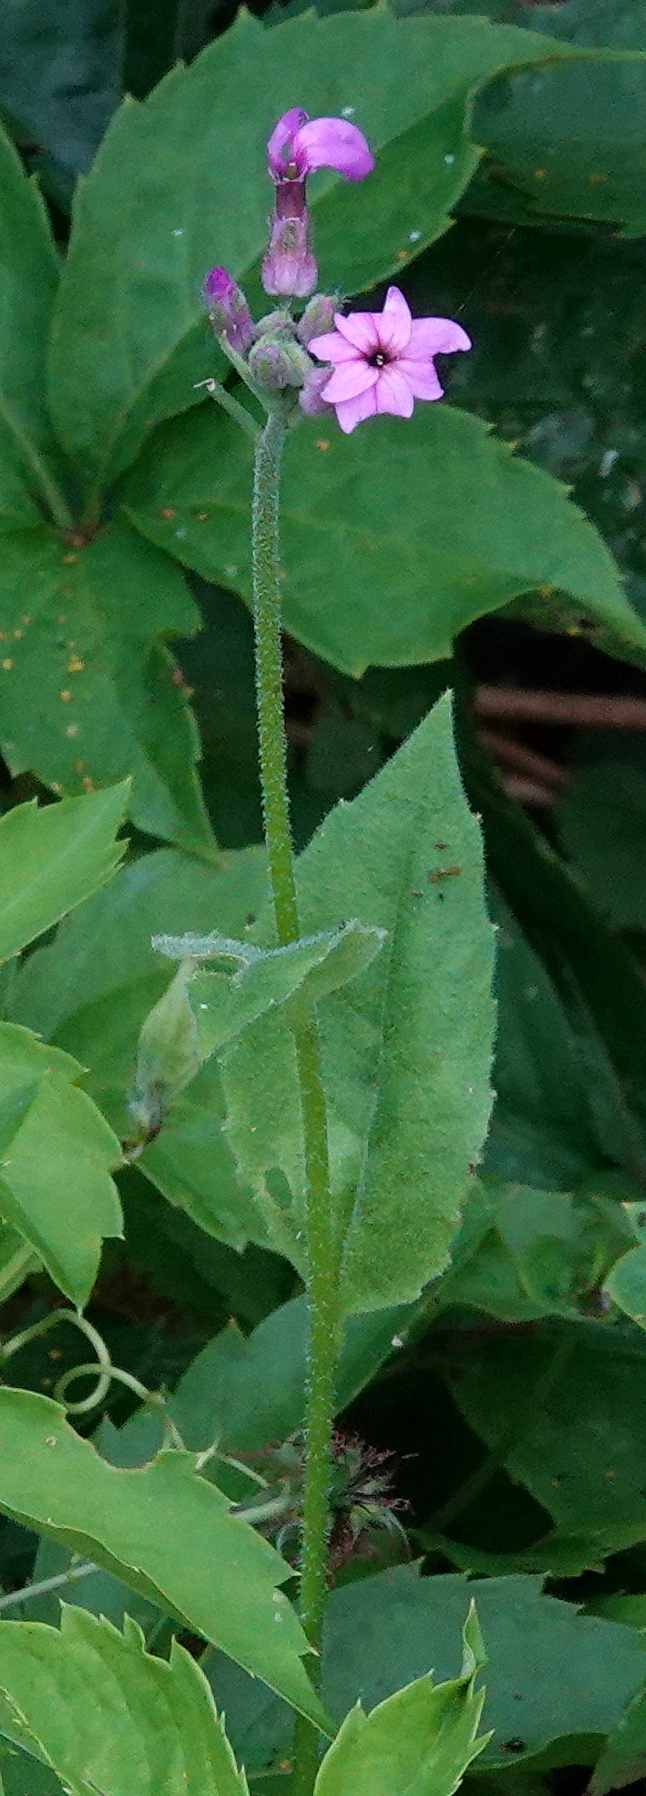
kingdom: Plantae
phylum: Tracheophyta
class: Magnoliopsida
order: Brassicales
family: Brassicaceae
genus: Hesperis
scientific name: Hesperis matronalis
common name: Dame's-violet
